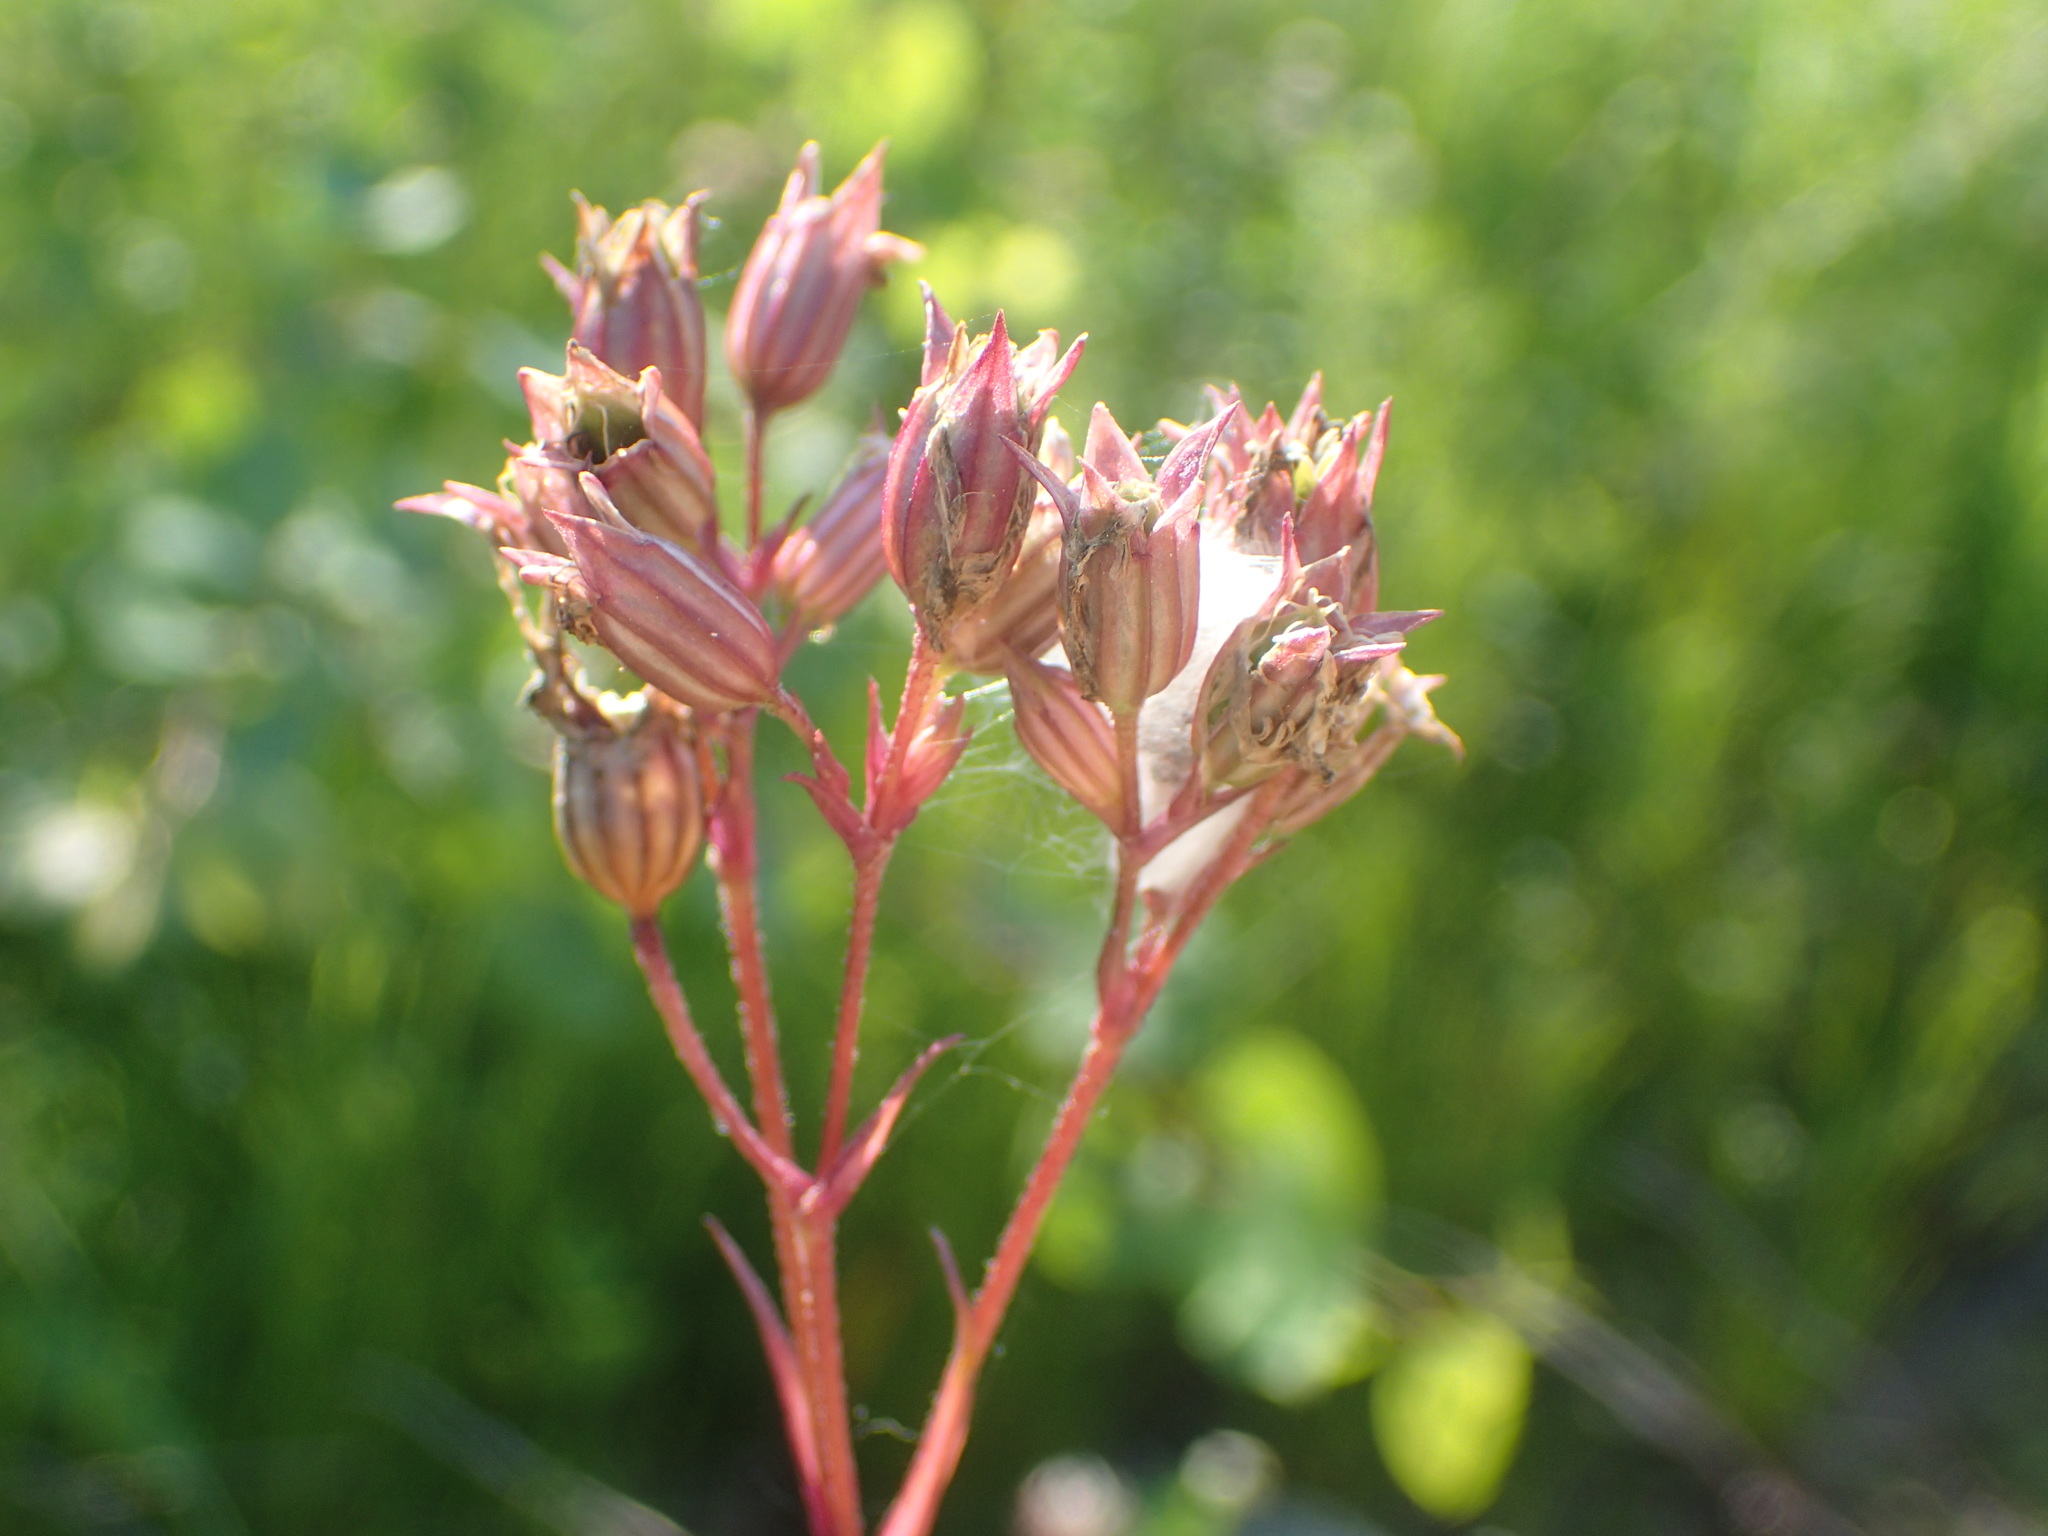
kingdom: Plantae
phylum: Tracheophyta
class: Magnoliopsida
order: Caryophyllales
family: Caryophyllaceae
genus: Silene
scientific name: Silene flos-cuculi
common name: Ragged-robin
